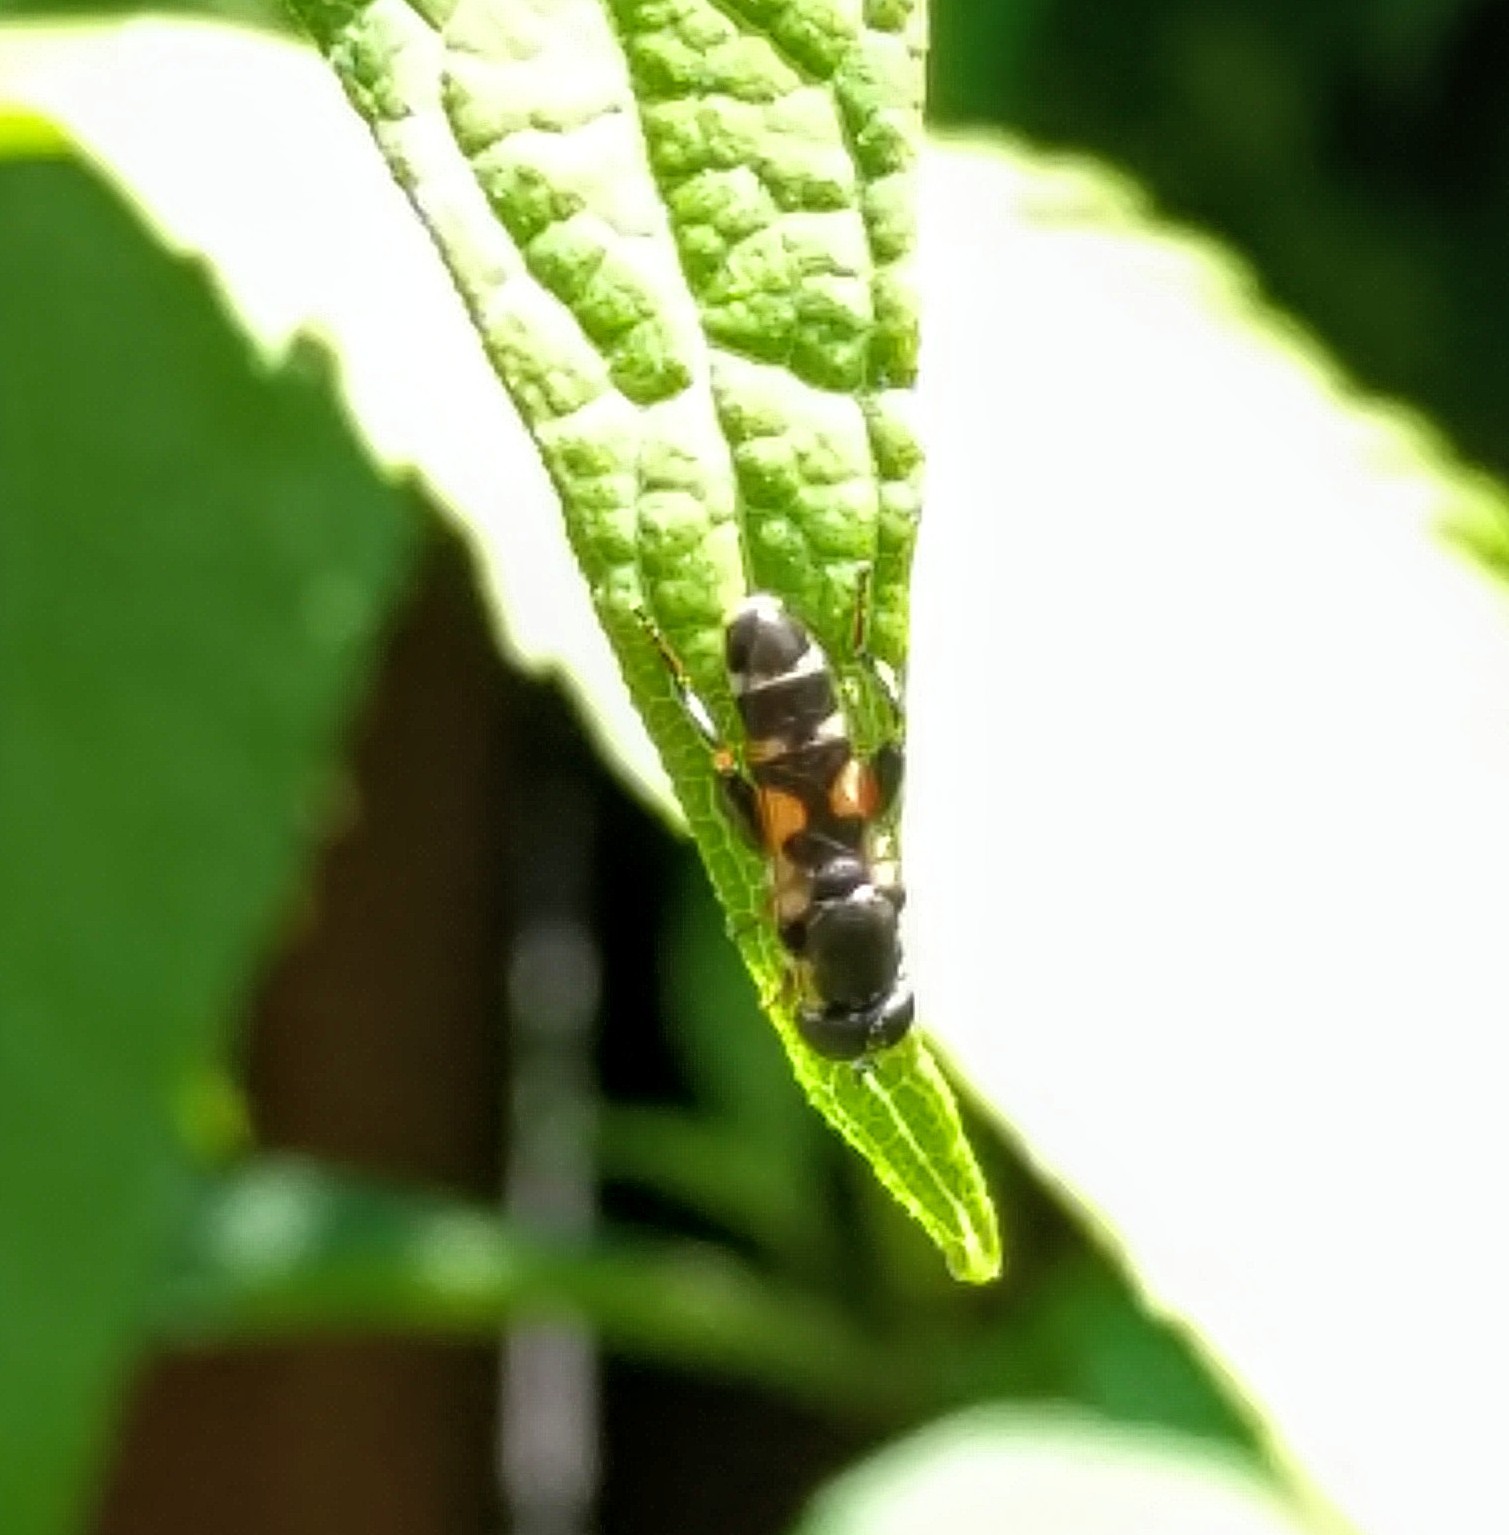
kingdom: Animalia
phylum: Arthropoda
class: Insecta
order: Diptera
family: Syrphidae
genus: Syritta
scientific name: Syritta pipiens
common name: Hover fly
